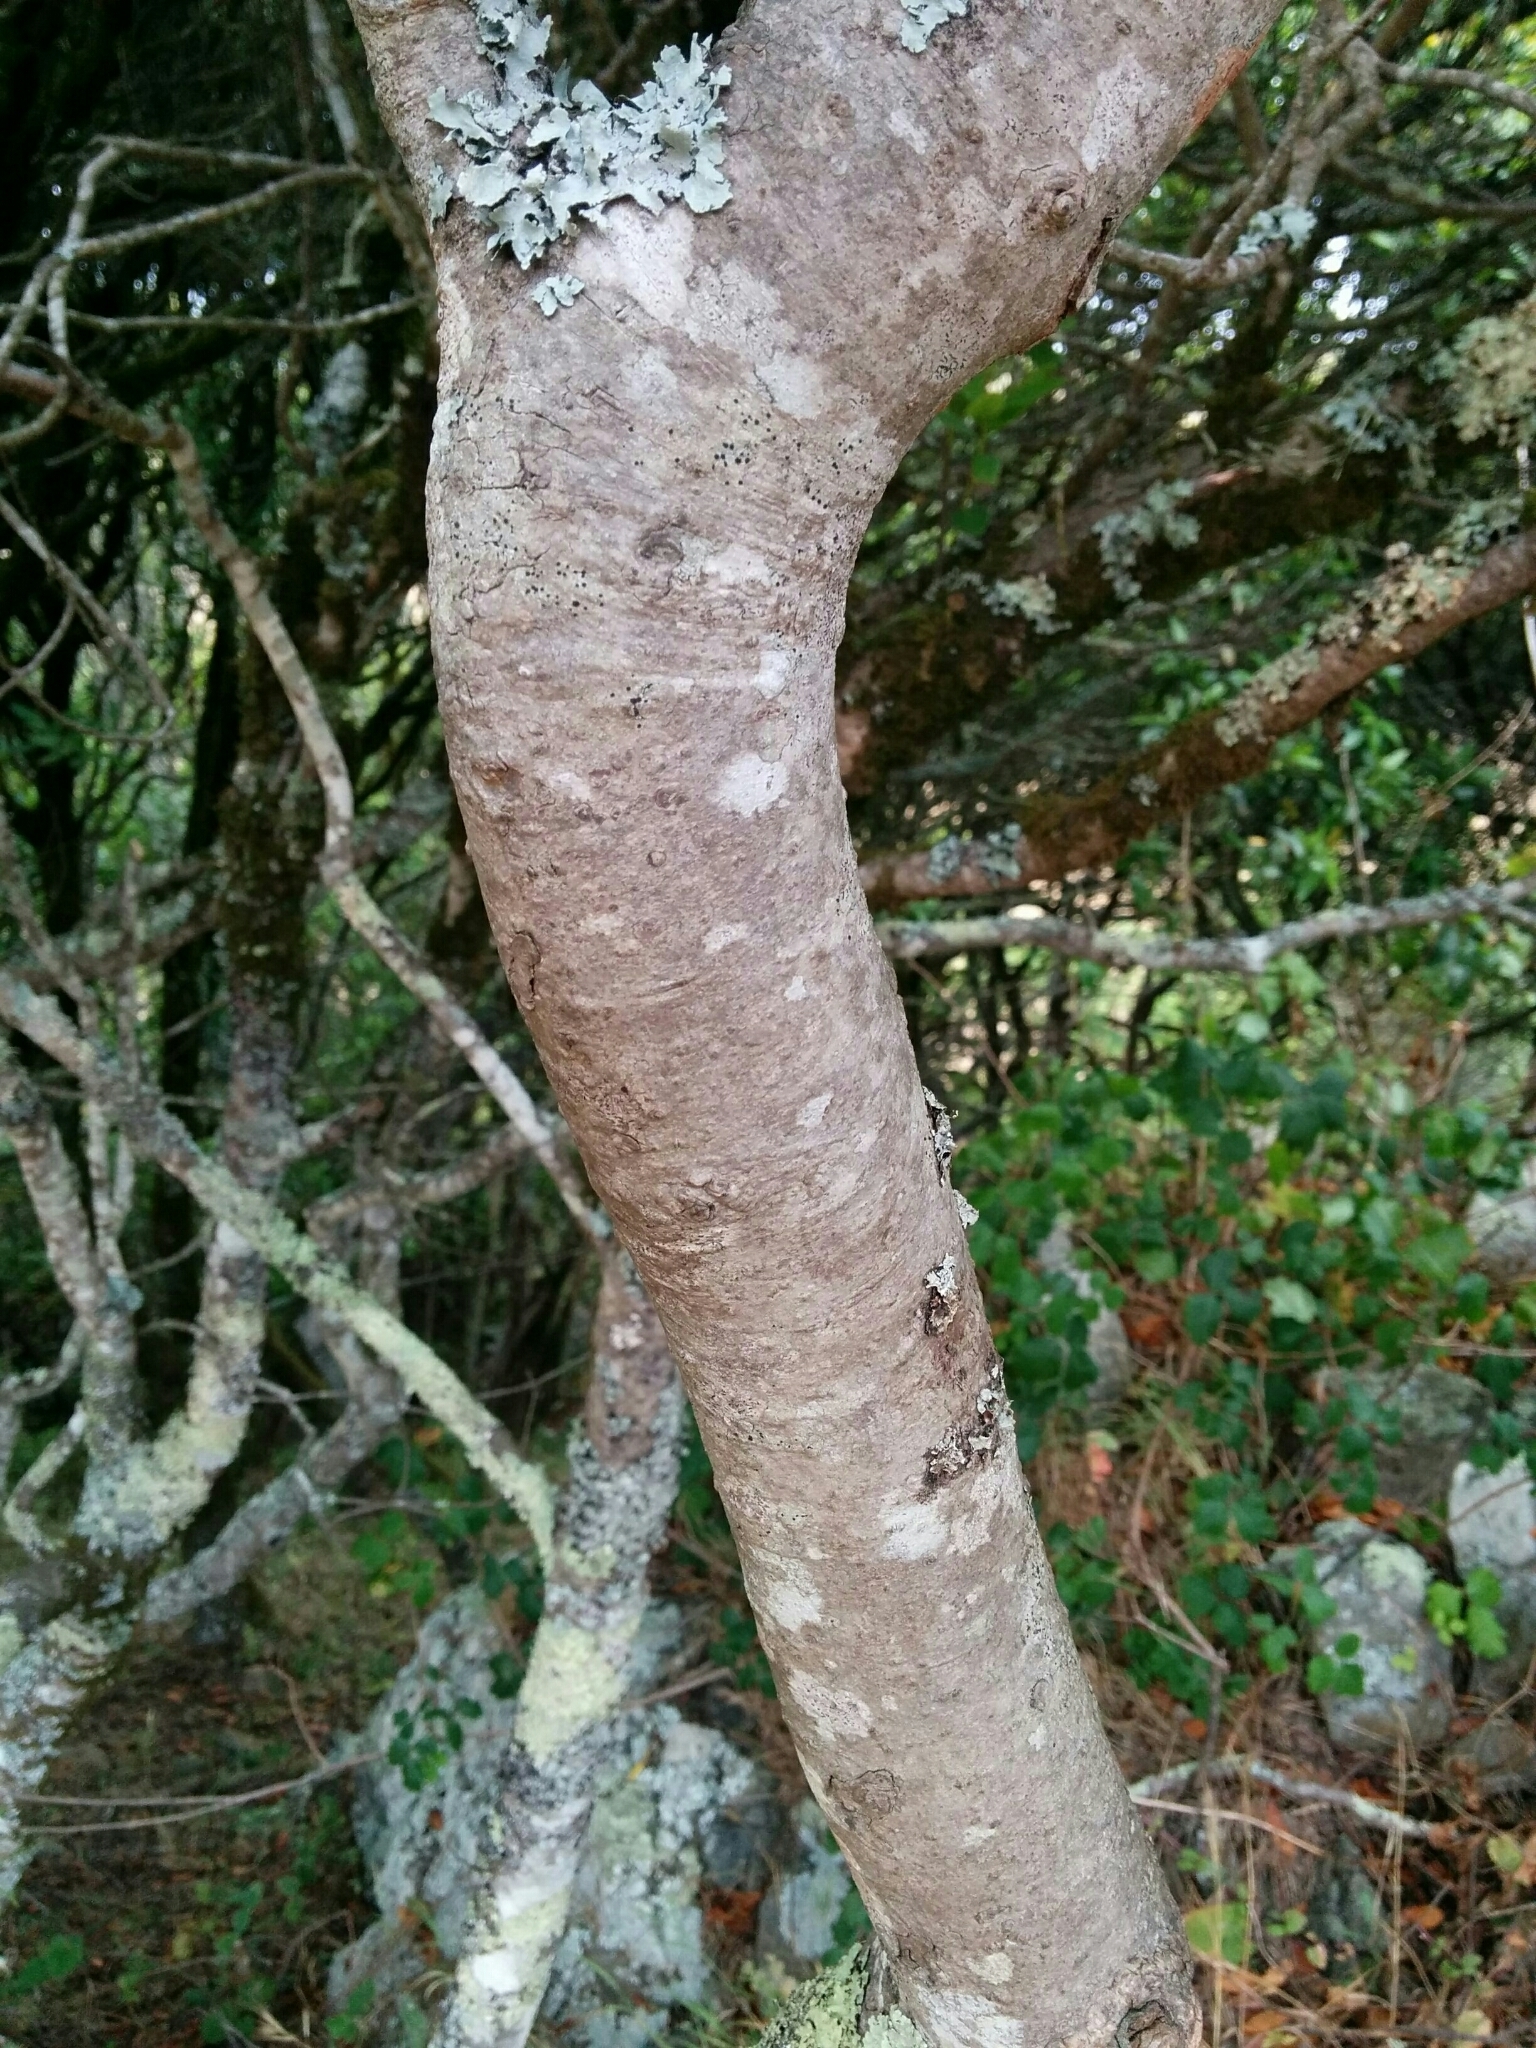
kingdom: Plantae
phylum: Tracheophyta
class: Magnoliopsida
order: Laurales
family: Lauraceae
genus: Umbellularia
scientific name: Umbellularia californica
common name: California bay
